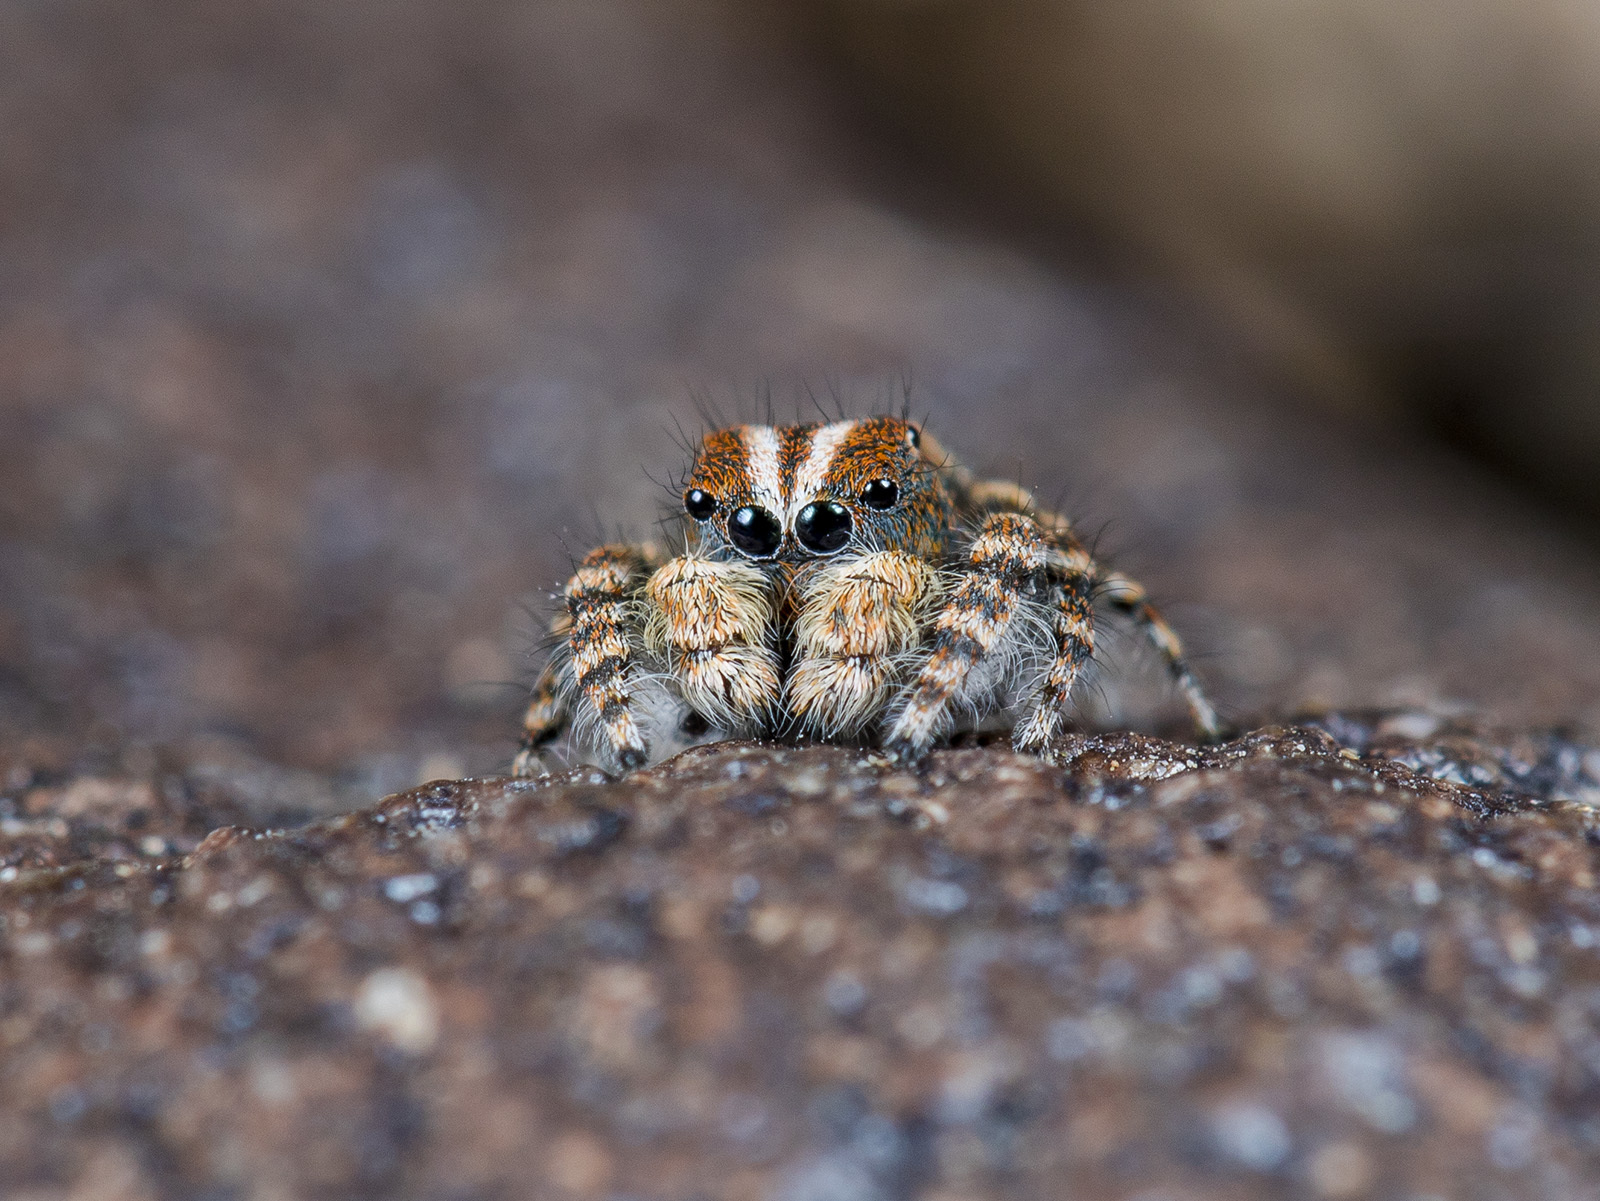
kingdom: Animalia
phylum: Arthropoda
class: Arachnida
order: Araneae
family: Salticidae
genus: Yllenus
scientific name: Yllenus zyuzini
